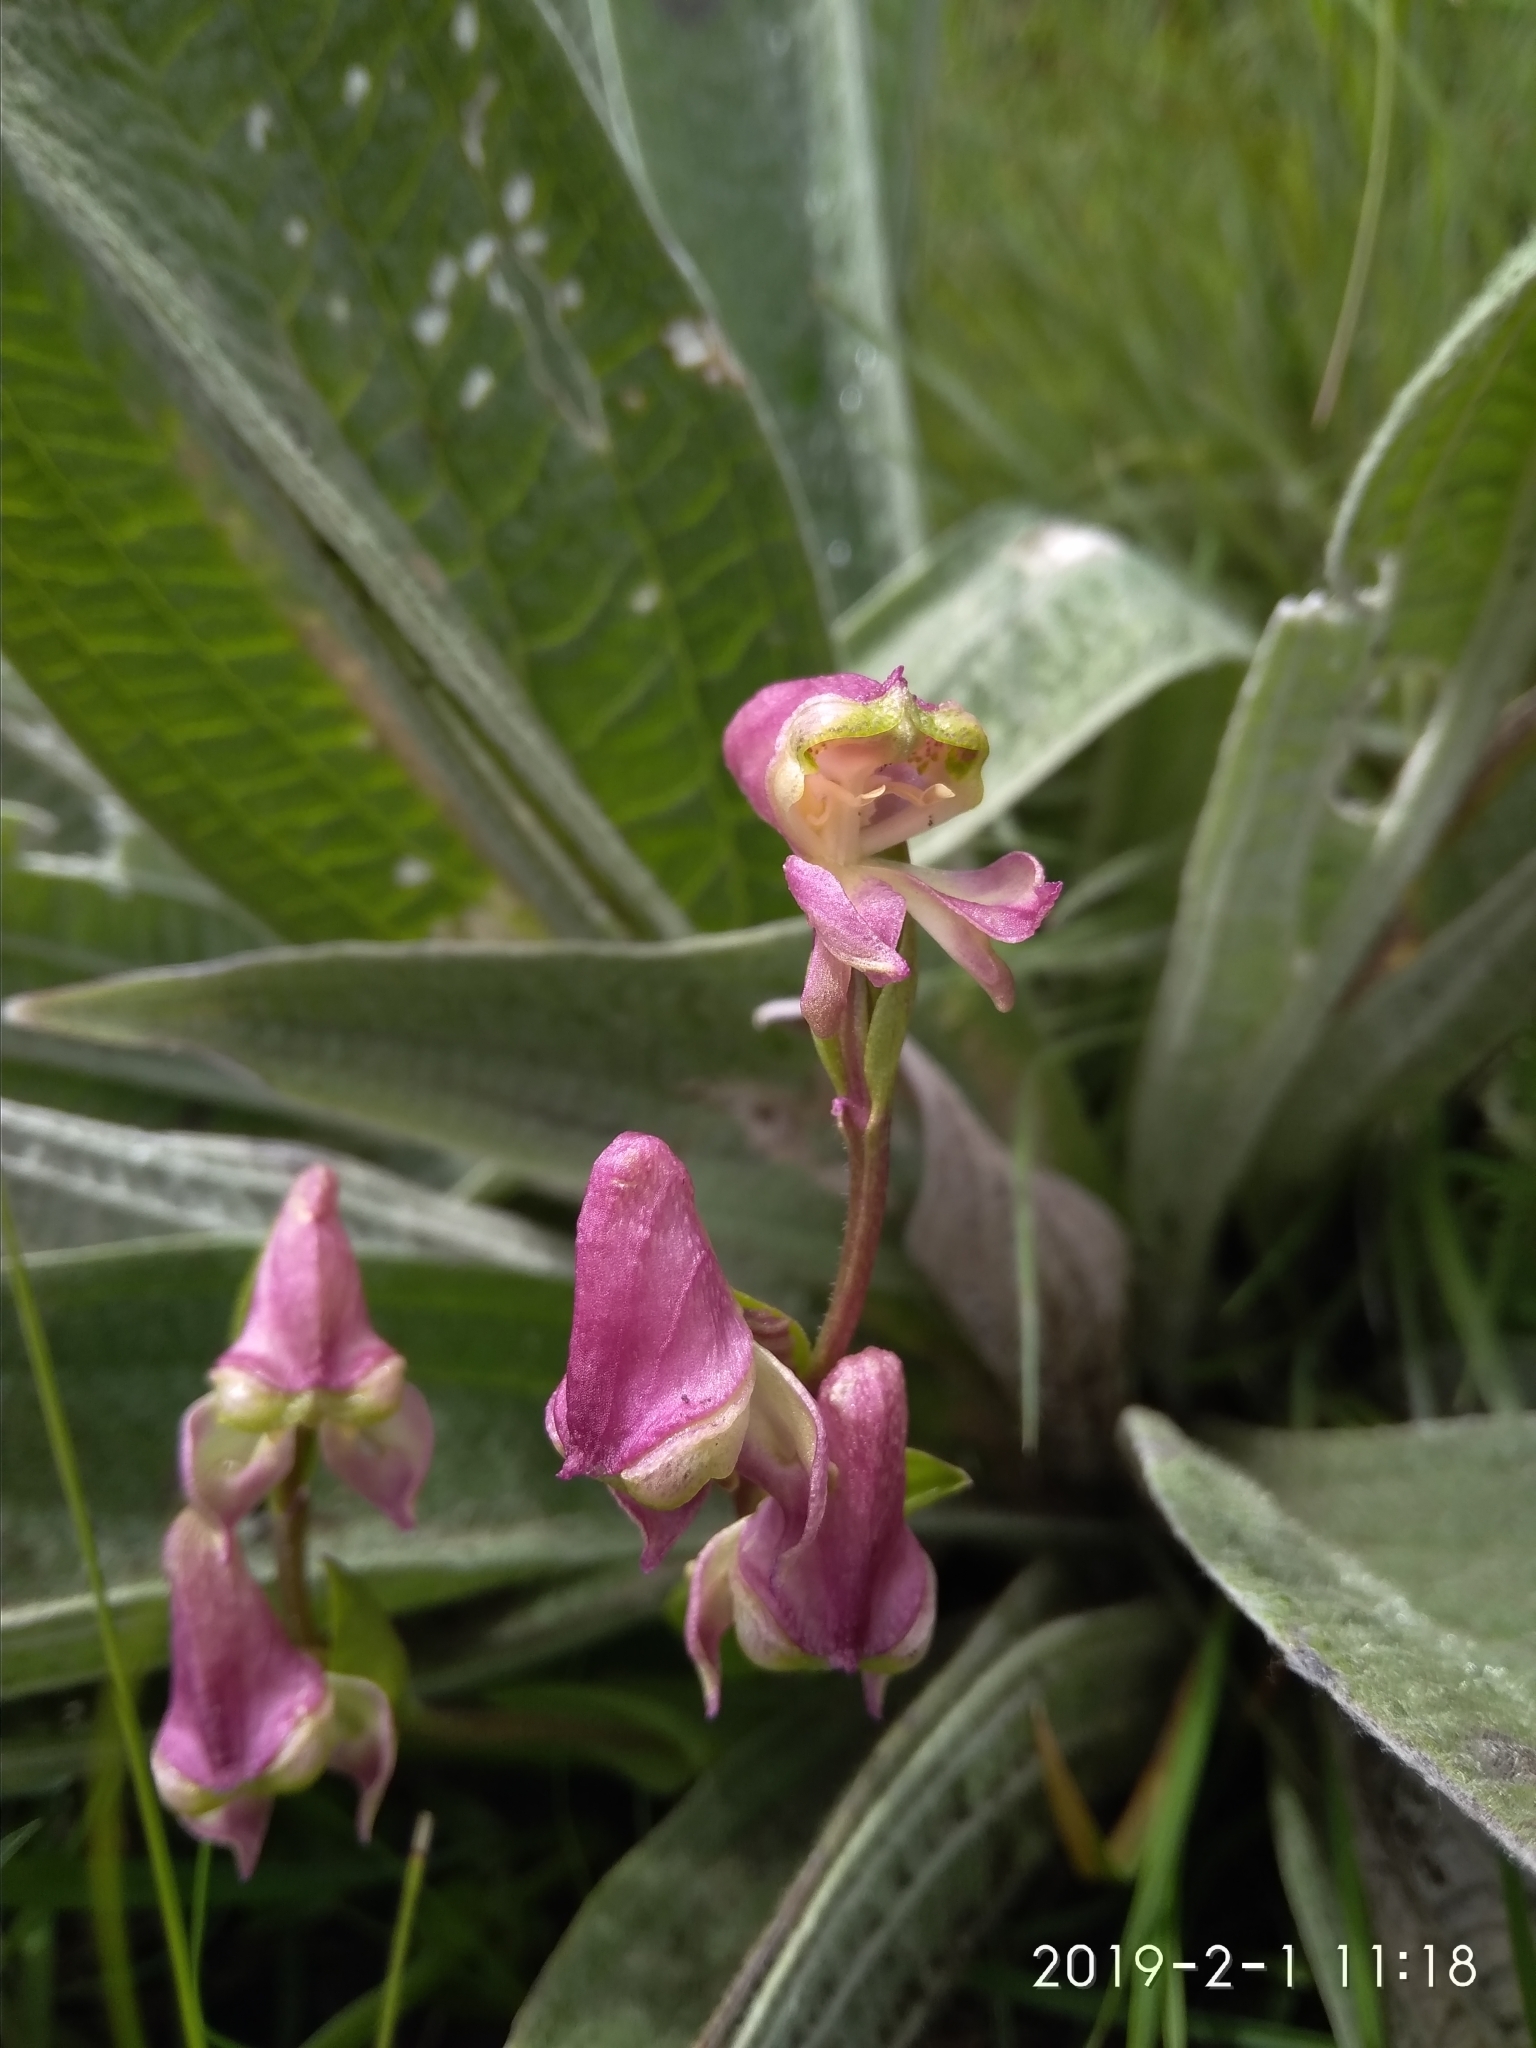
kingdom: Plantae
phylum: Tracheophyta
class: Liliopsida
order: Asparagales
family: Orchidaceae
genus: Disperis
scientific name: Disperis stenoplectron
